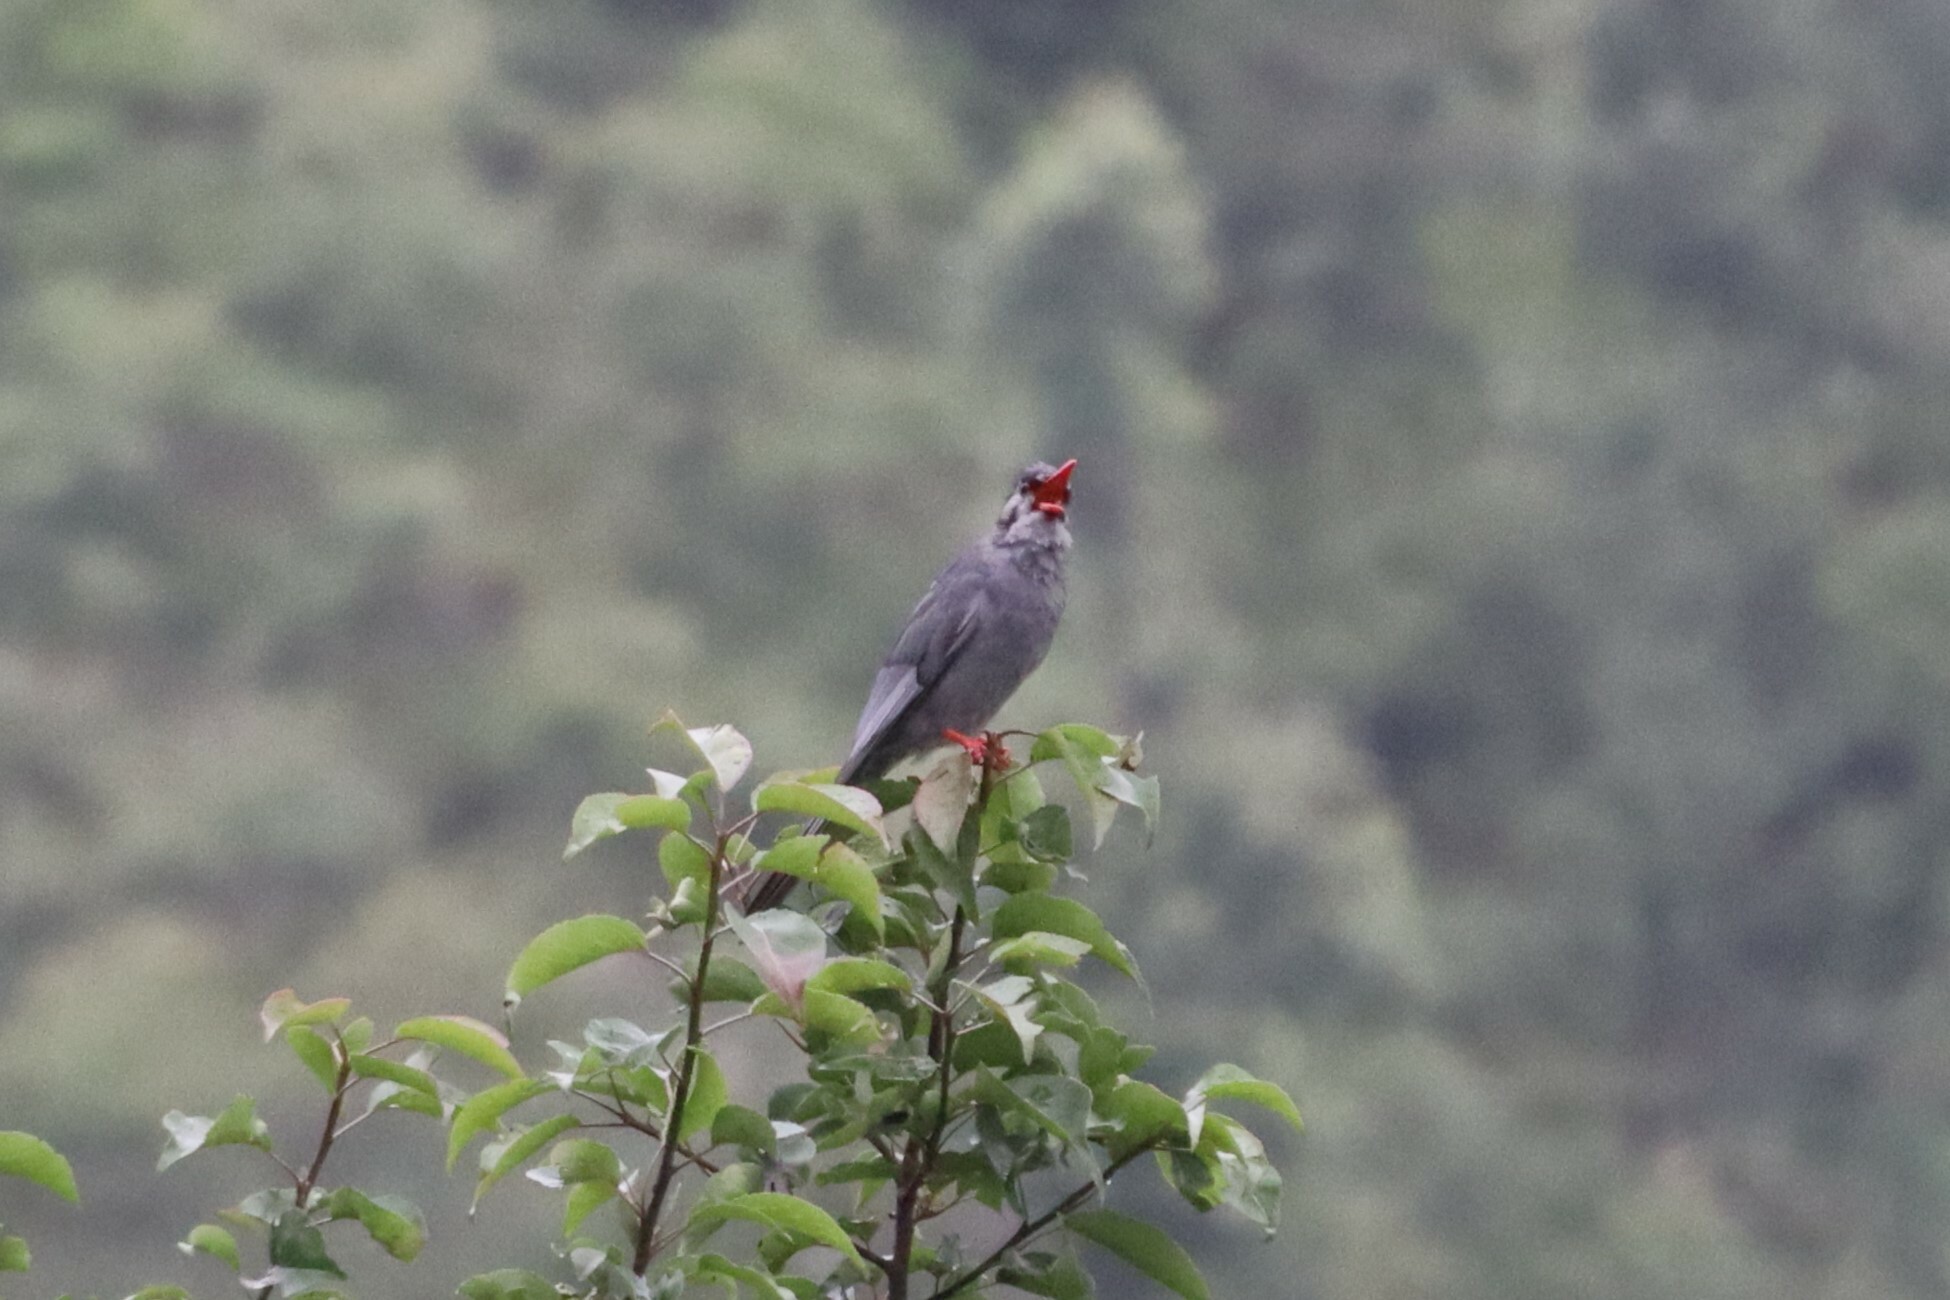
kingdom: Animalia
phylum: Chordata
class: Aves
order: Passeriformes
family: Pycnonotidae
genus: Hypsipetes
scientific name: Hypsipetes leucocephalus
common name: Black bulbul
